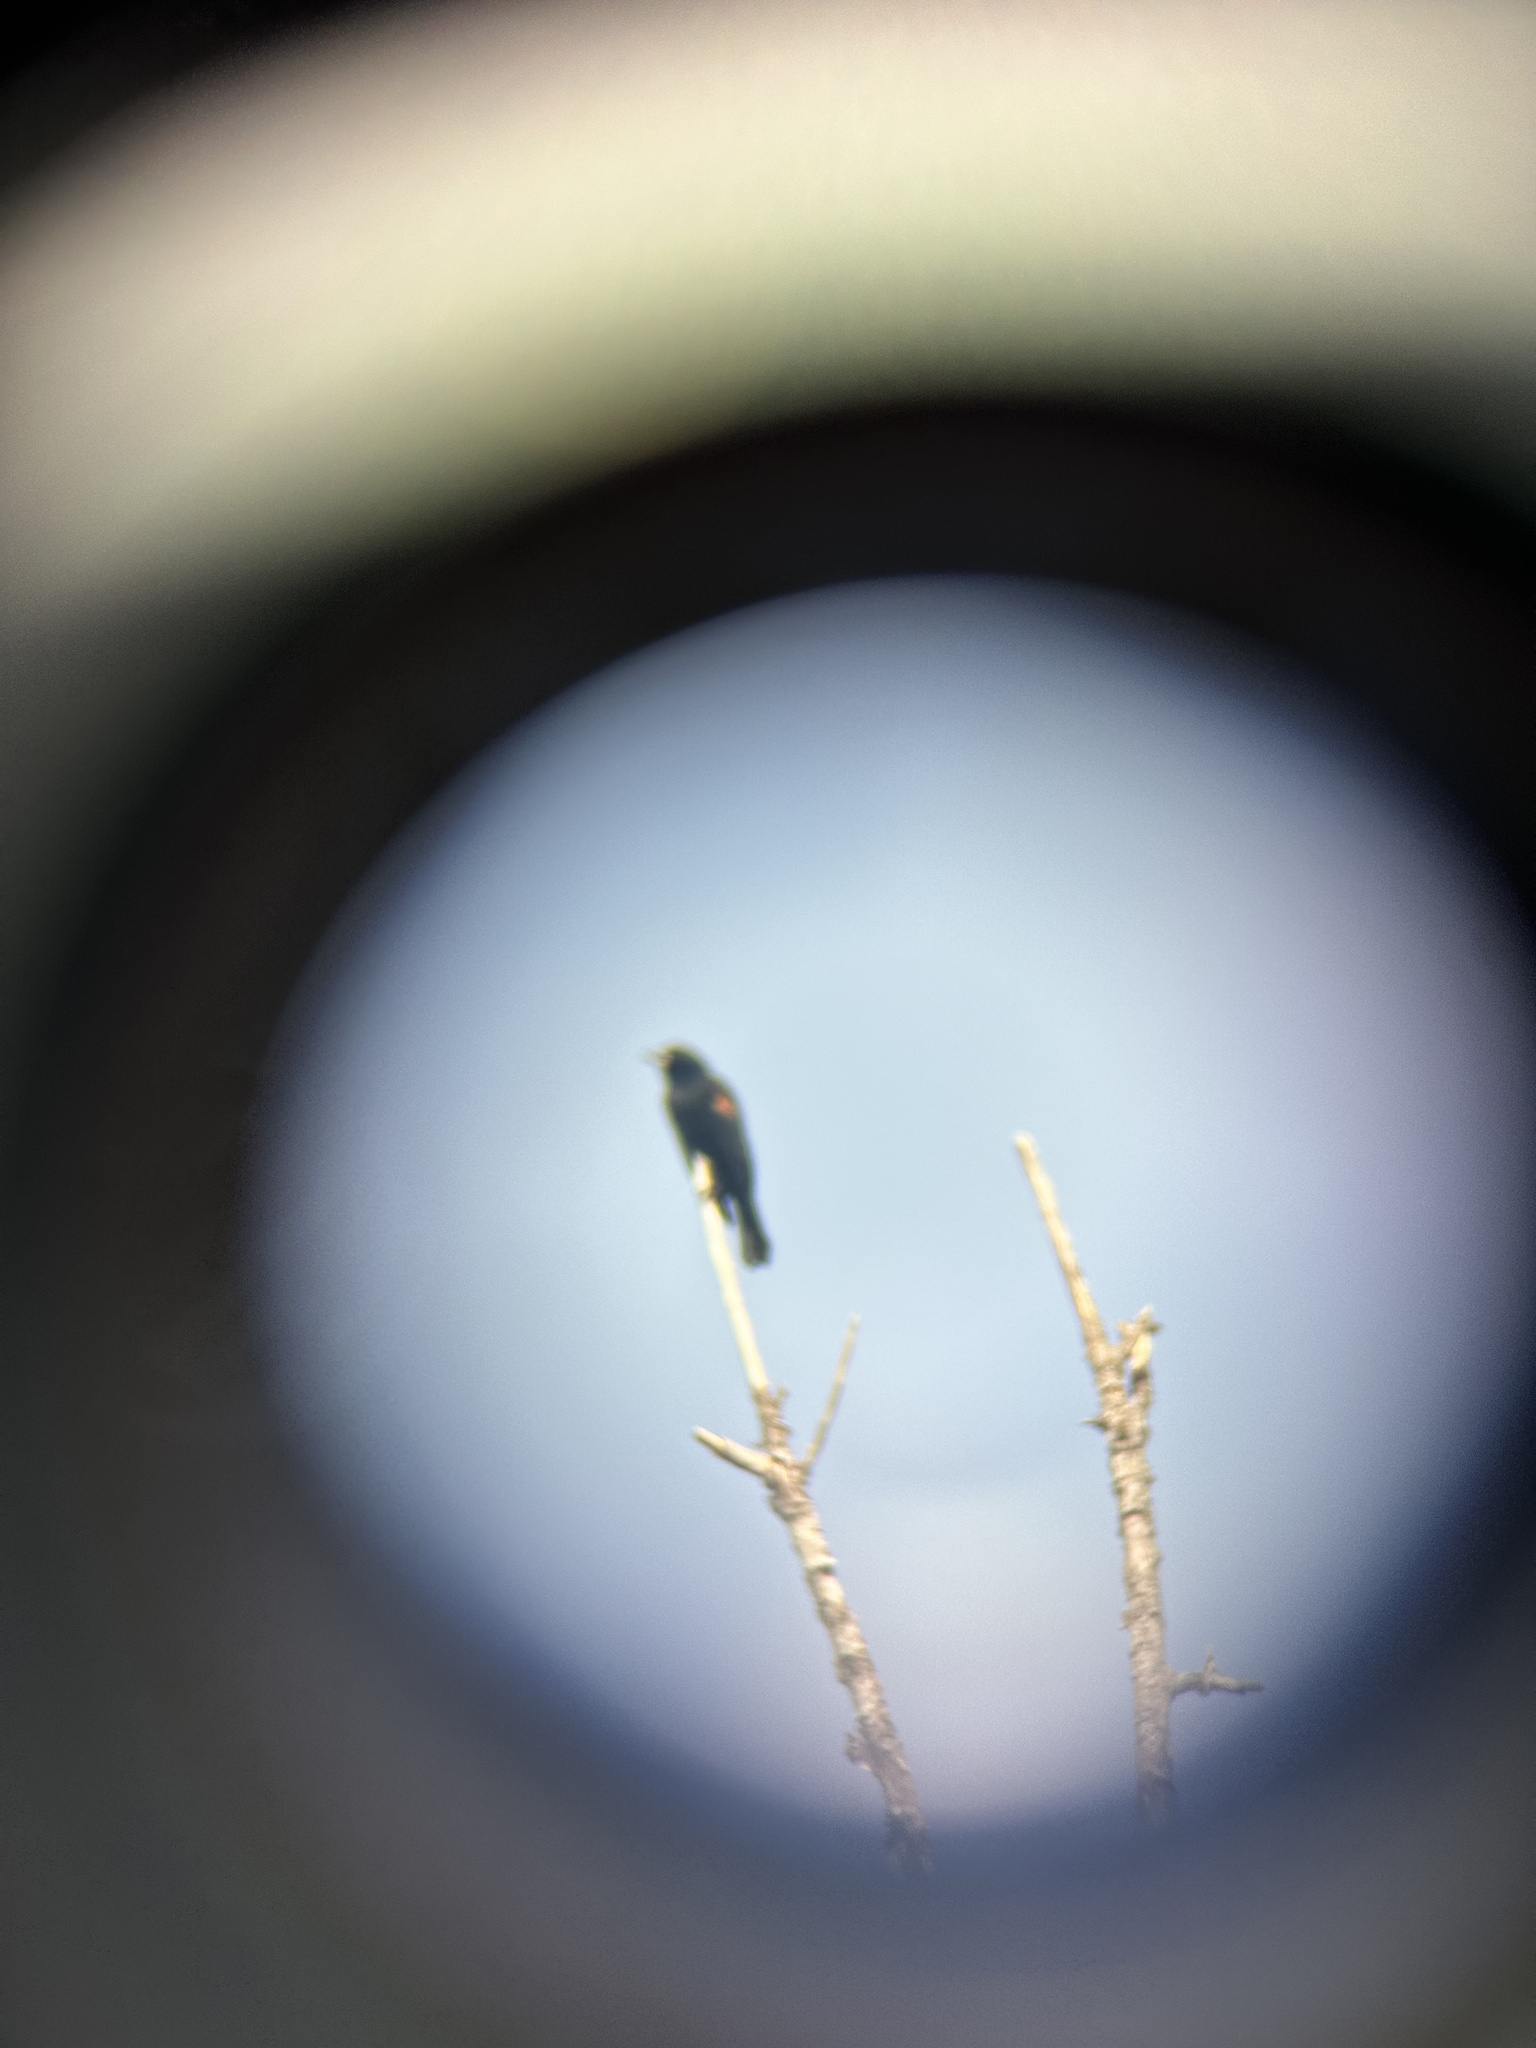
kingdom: Animalia
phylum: Chordata
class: Aves
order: Passeriformes
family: Icteridae
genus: Agelaius
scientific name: Agelaius phoeniceus
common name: Red-winged blackbird
